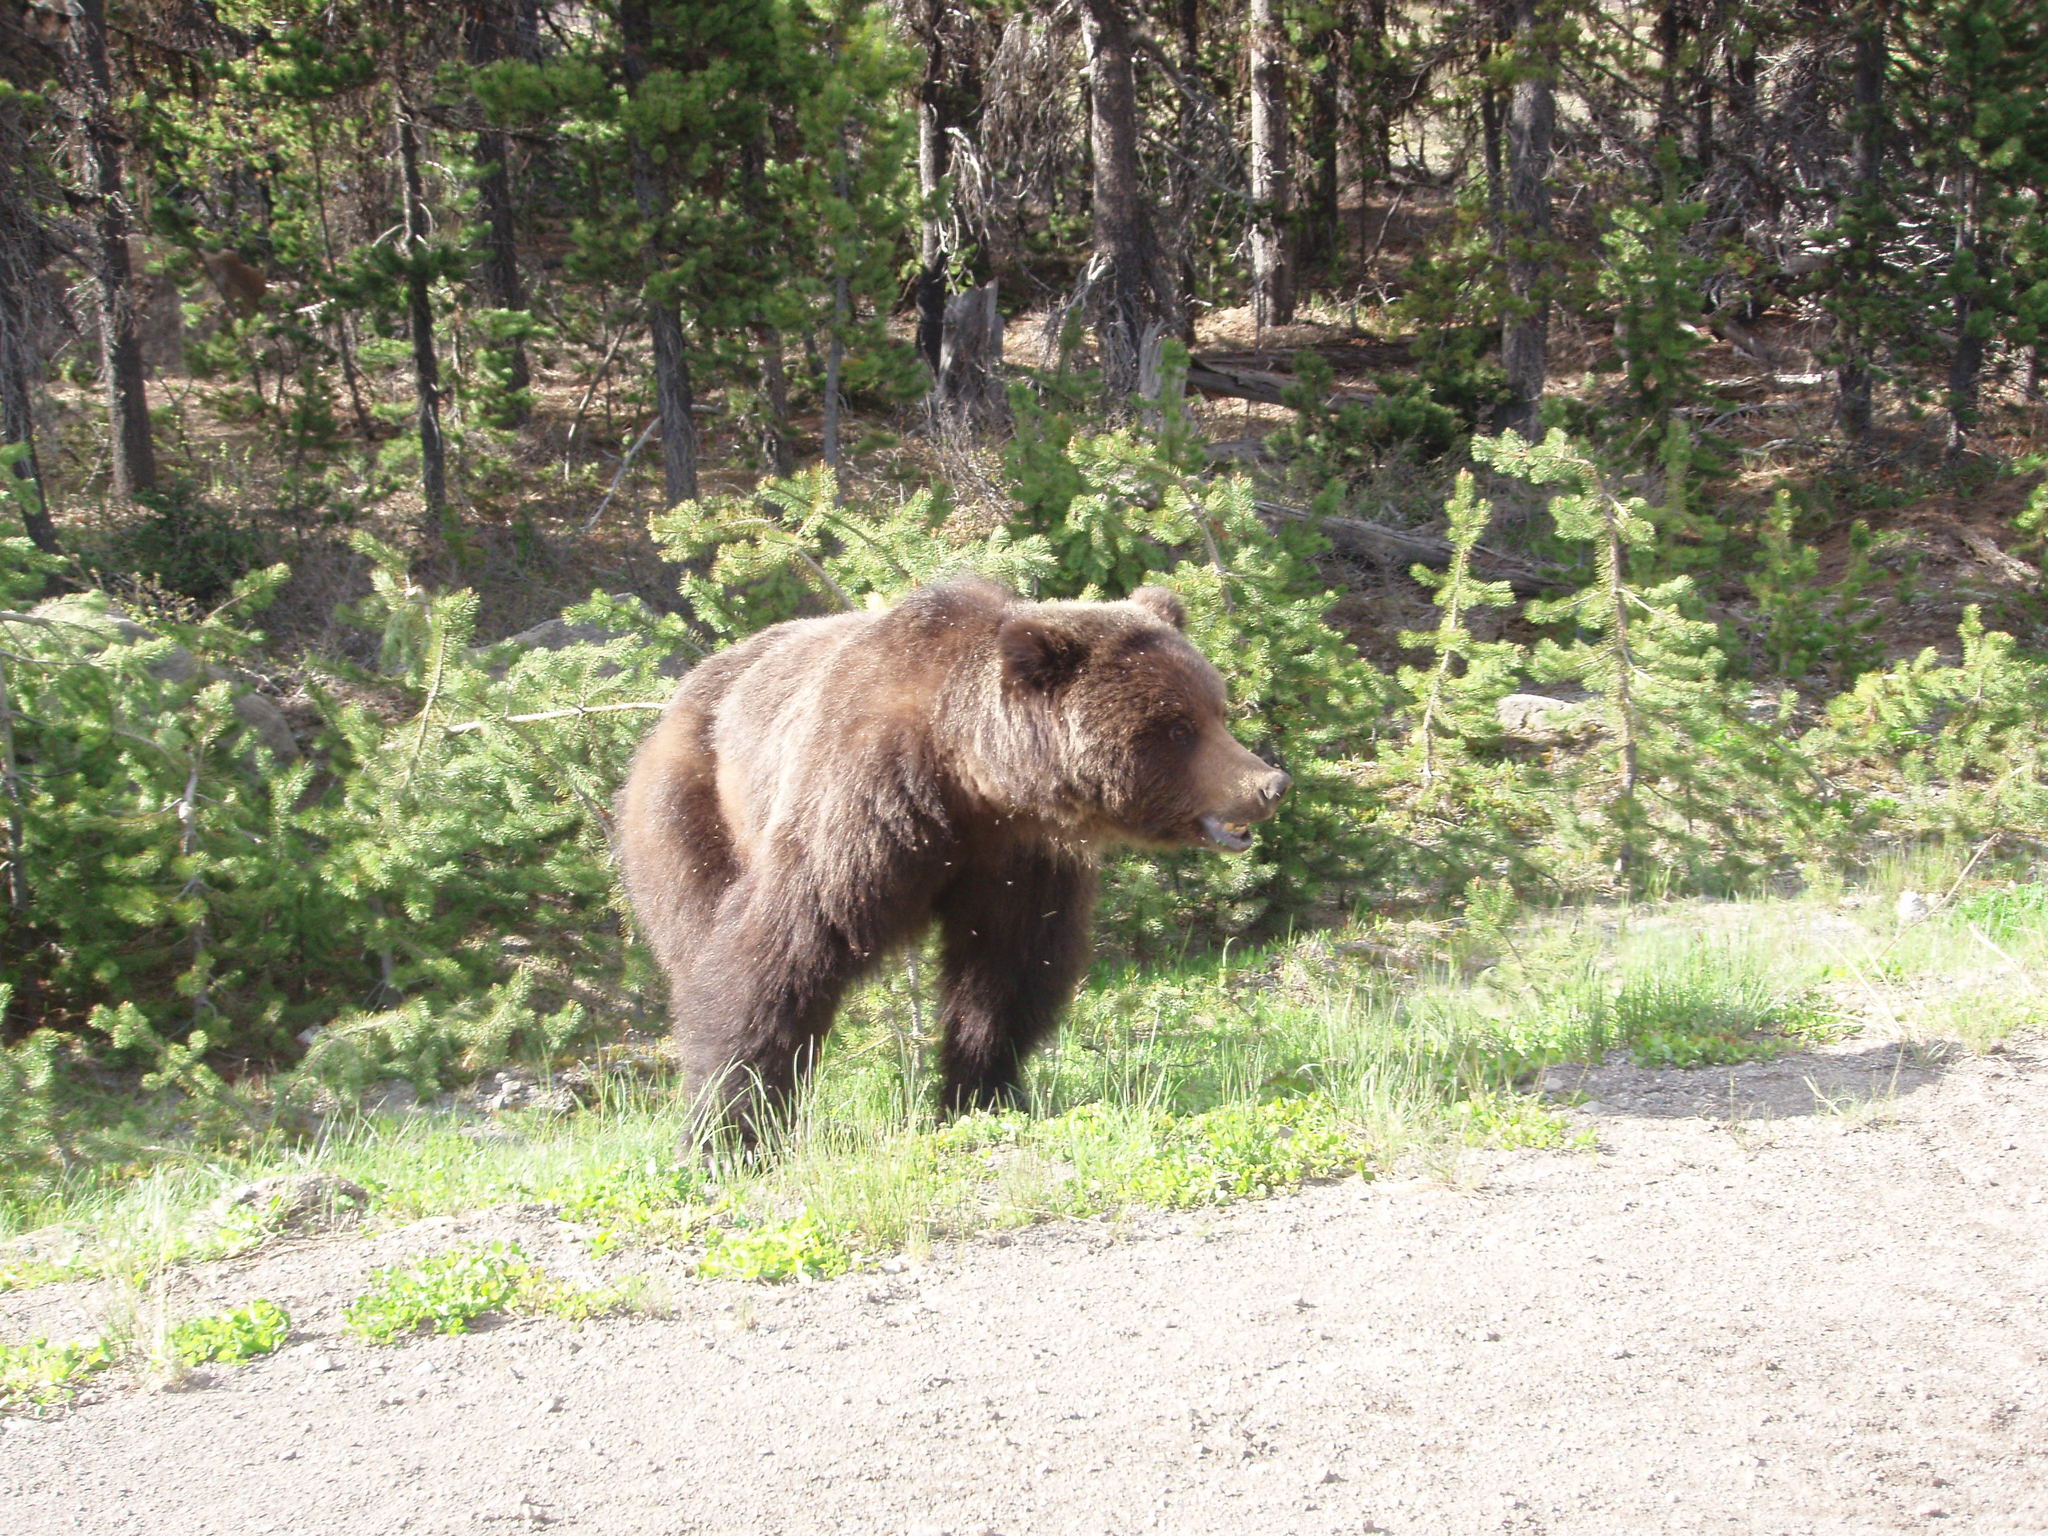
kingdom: Animalia
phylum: Chordata
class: Mammalia
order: Carnivora
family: Ursidae
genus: Ursus
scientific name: Ursus arctos
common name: Brown bear
